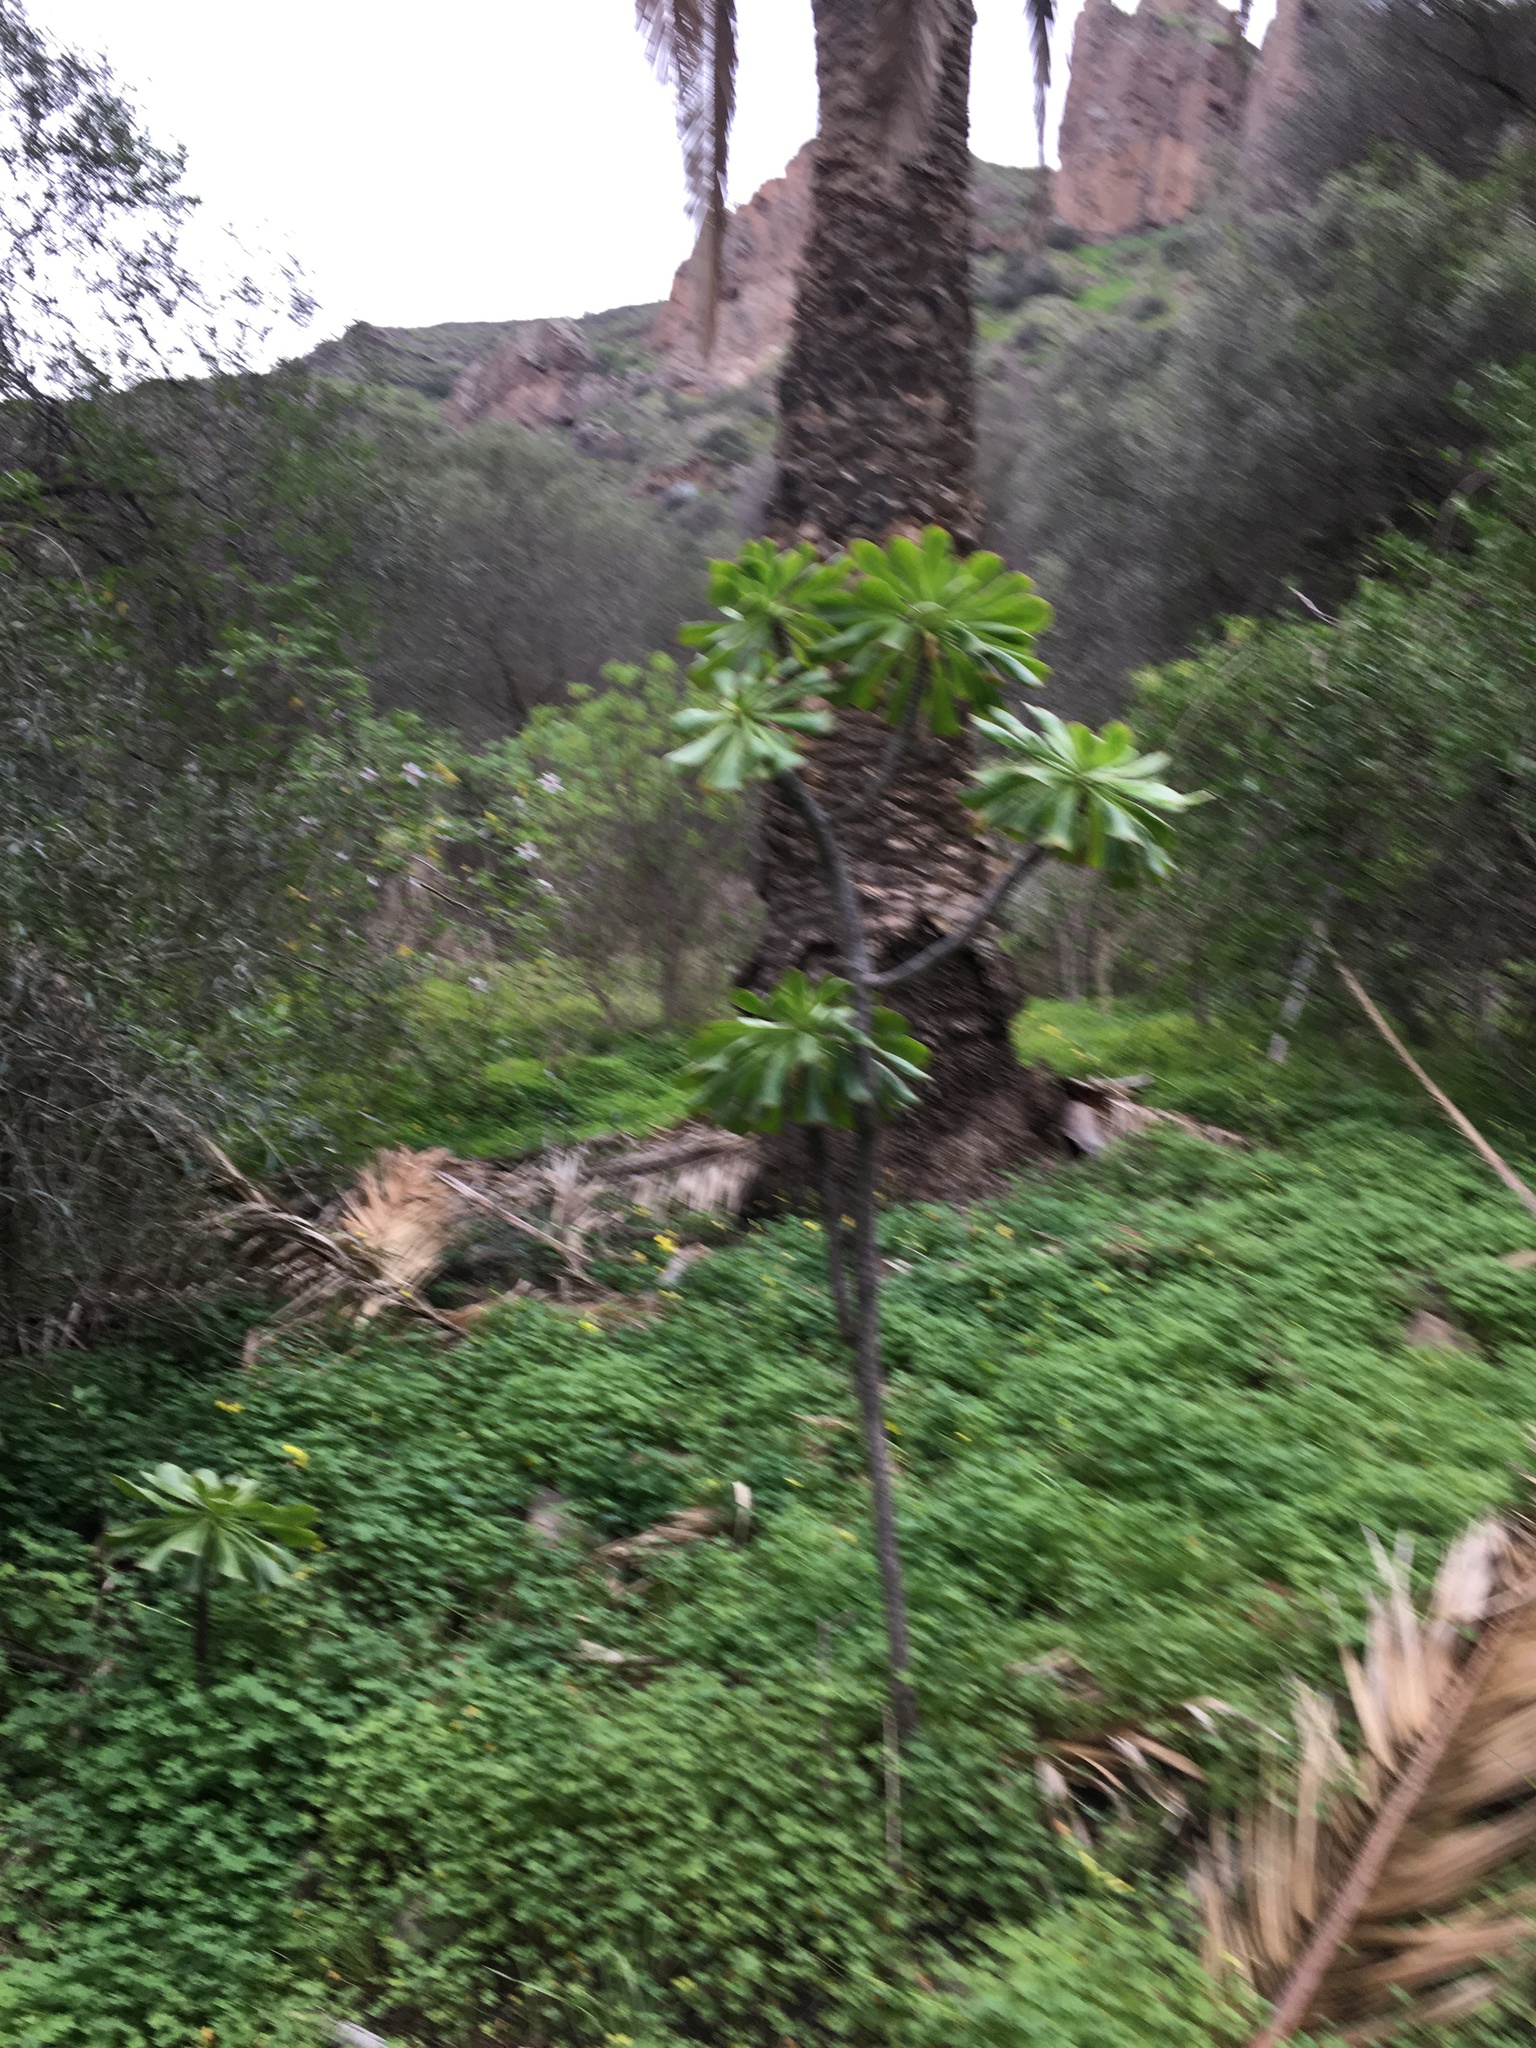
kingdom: Plantae
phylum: Tracheophyta
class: Magnoliopsida
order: Saxifragales
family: Crassulaceae
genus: Aeonium
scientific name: Aeonium arboreum
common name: Tree aeonium
